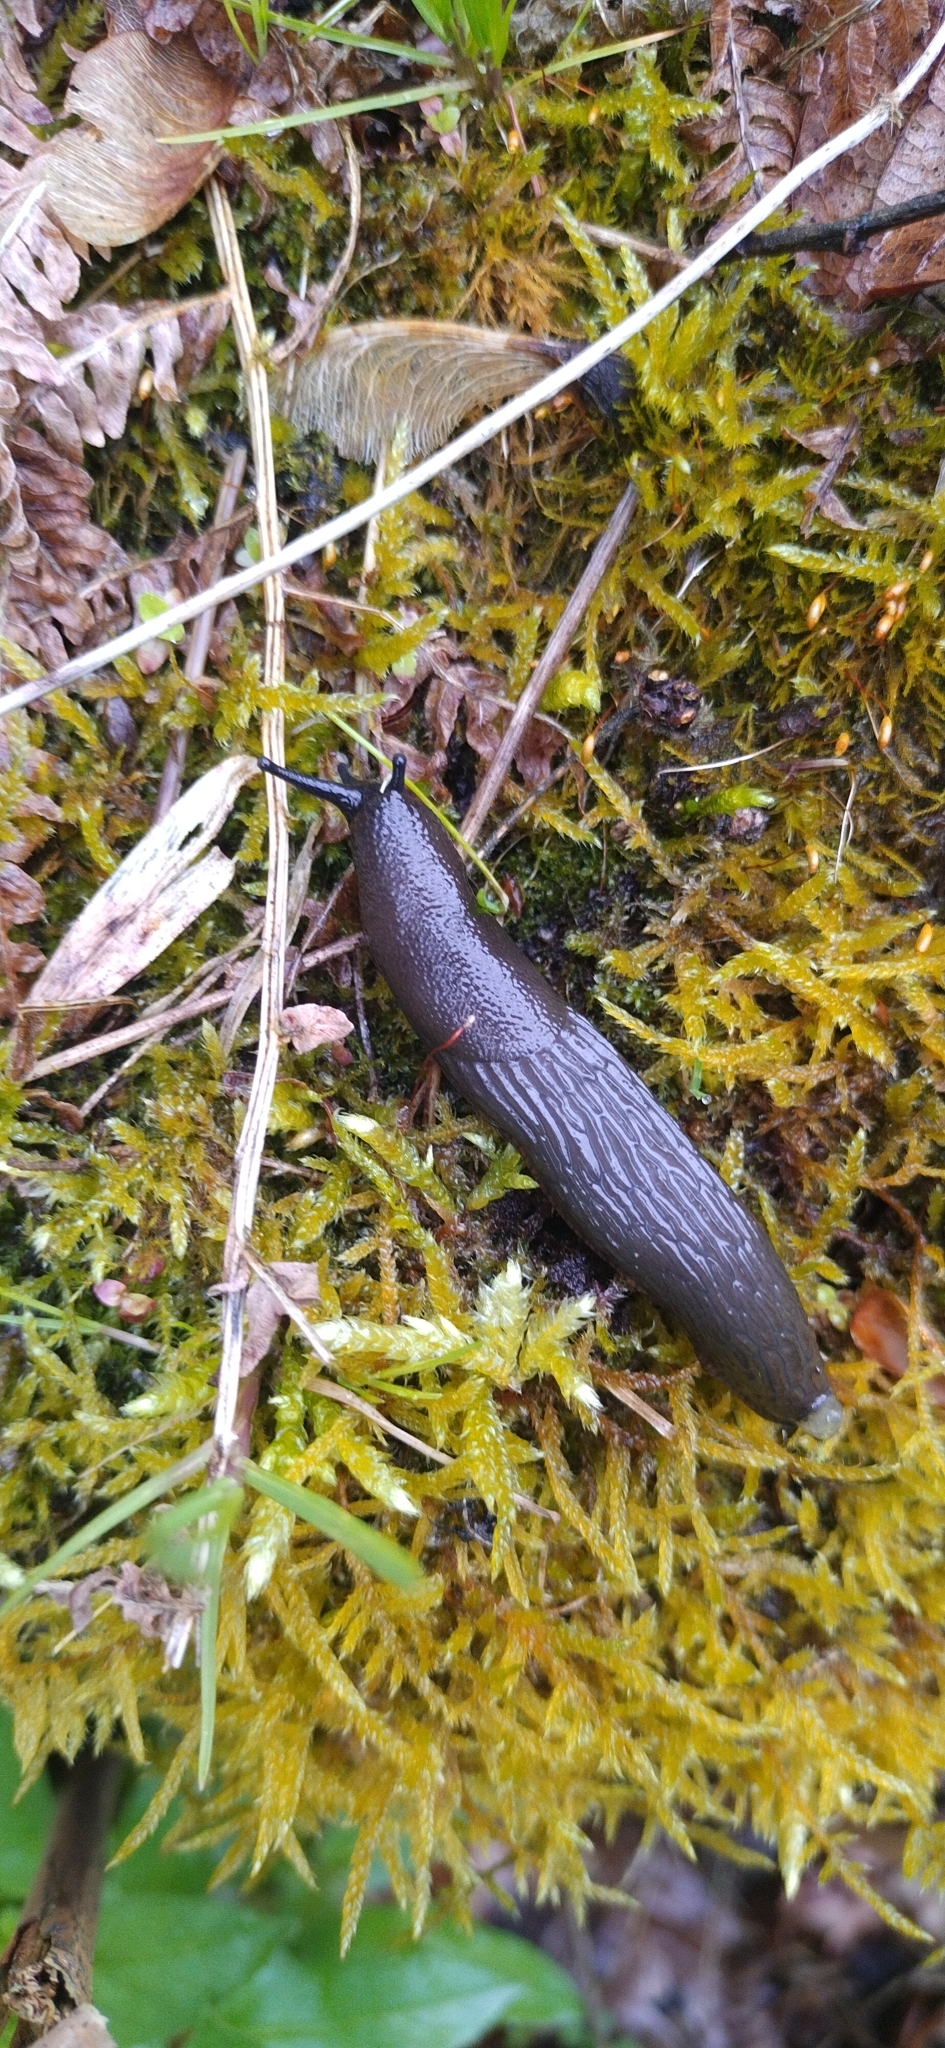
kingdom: Animalia
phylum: Mollusca
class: Gastropoda
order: Stylommatophora
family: Arionidae
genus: Arion
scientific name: Arion ater
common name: Black arion
